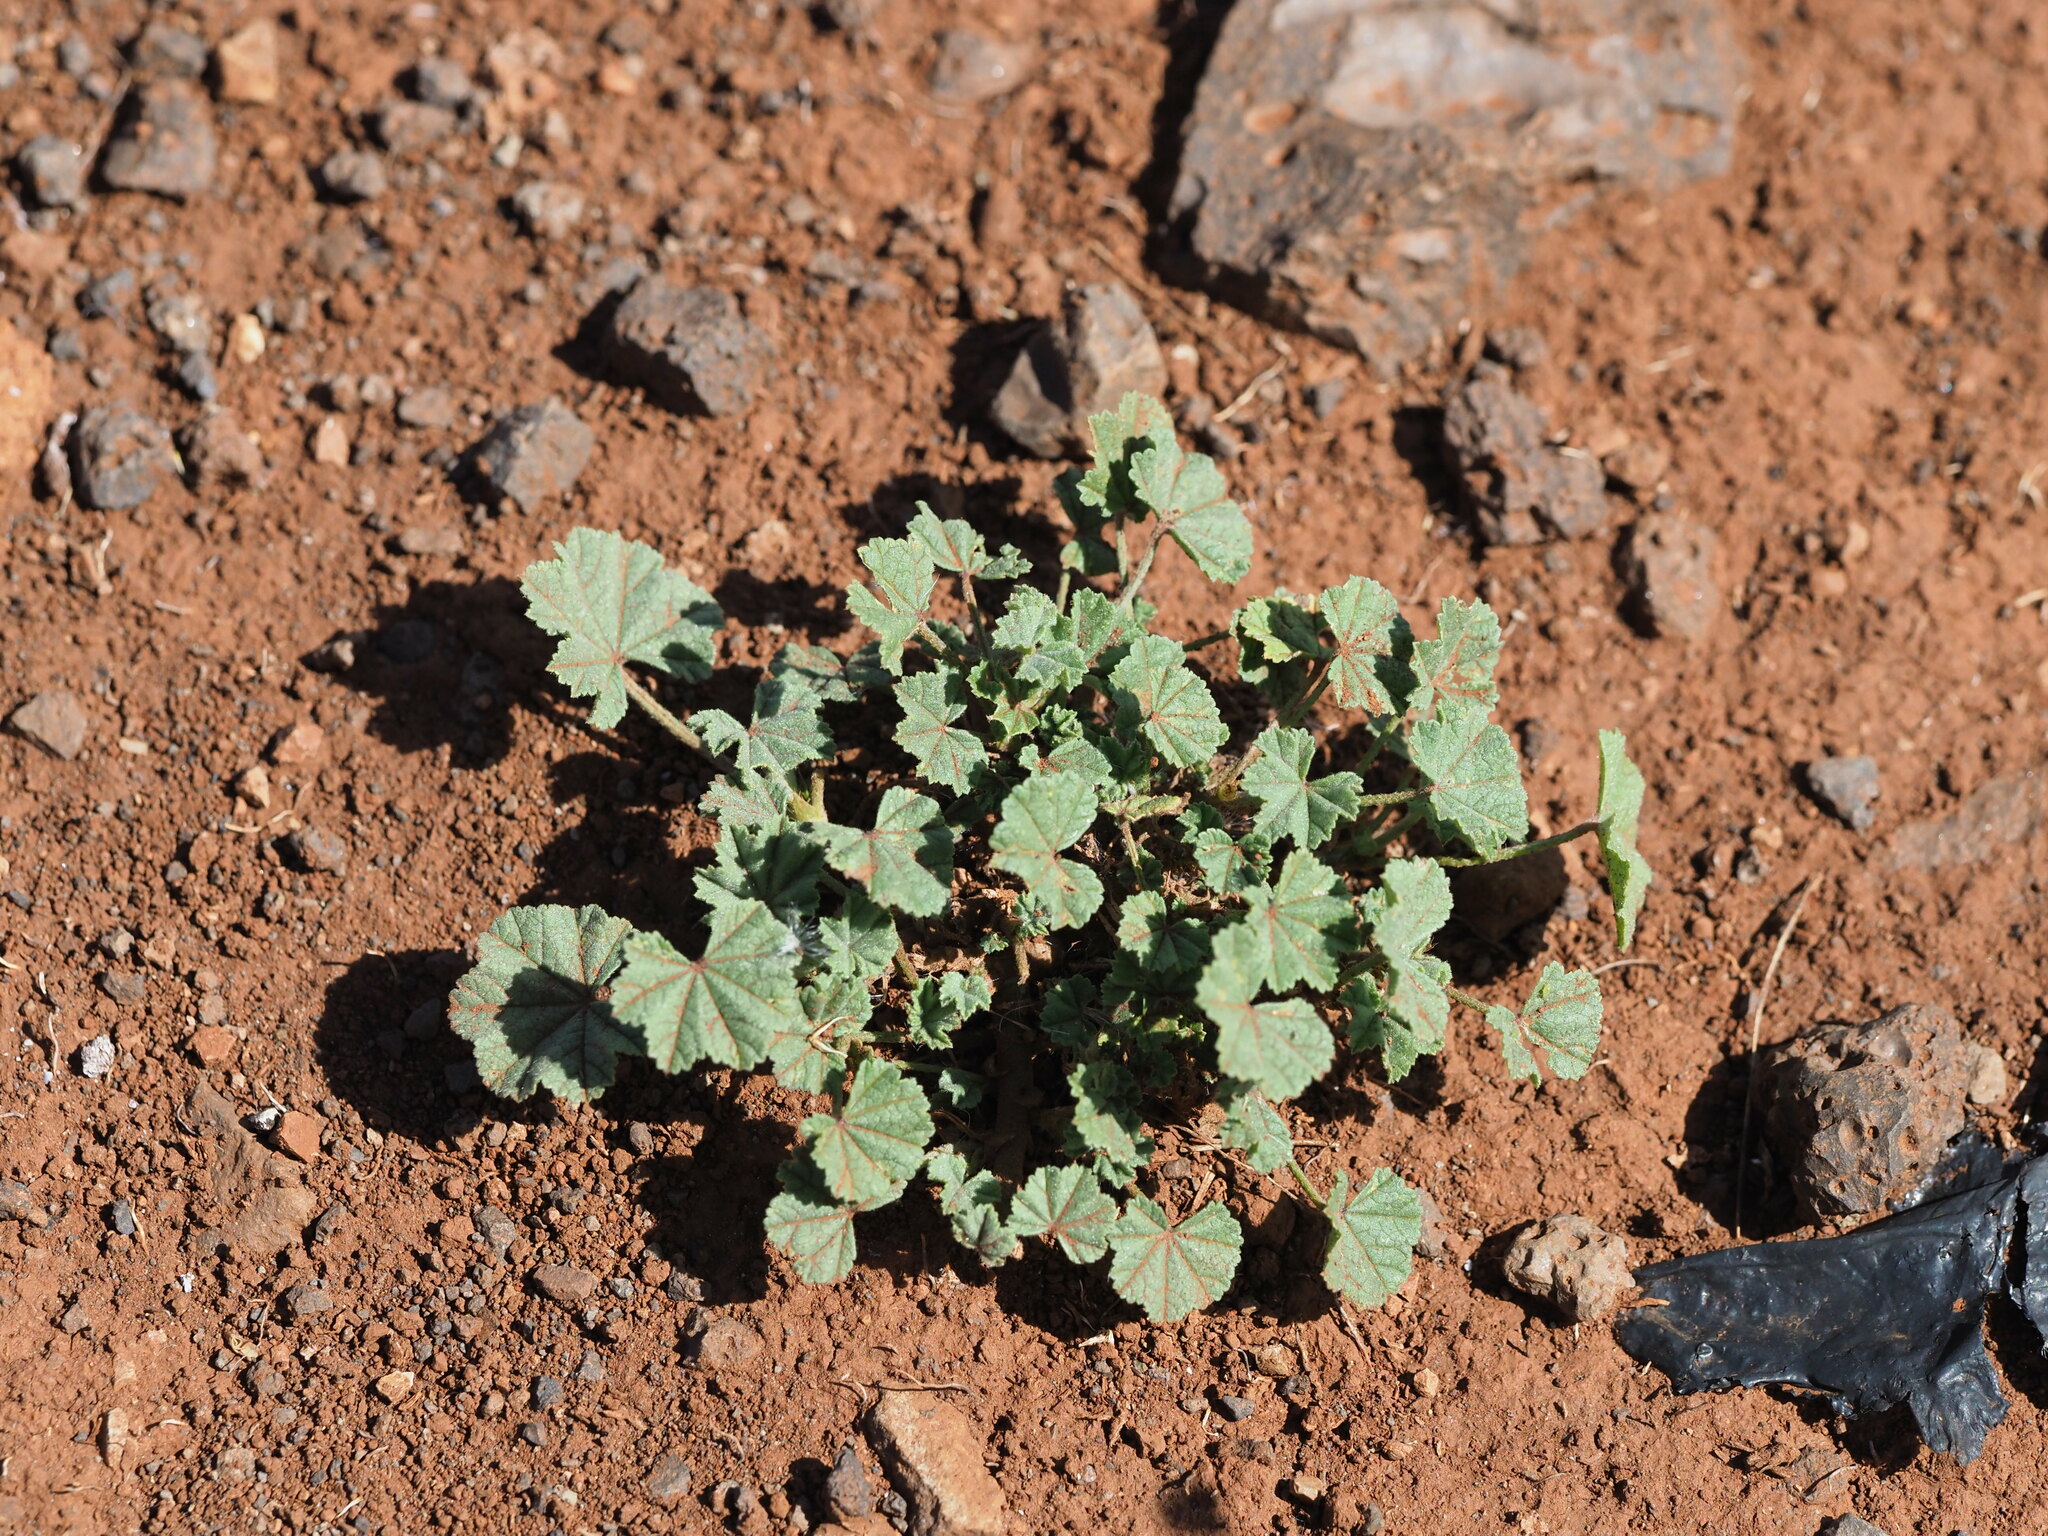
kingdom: Plantae
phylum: Tracheophyta
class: Magnoliopsida
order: Malvales
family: Malvaceae
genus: Malva
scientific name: Malva parviflora
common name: Least mallow
